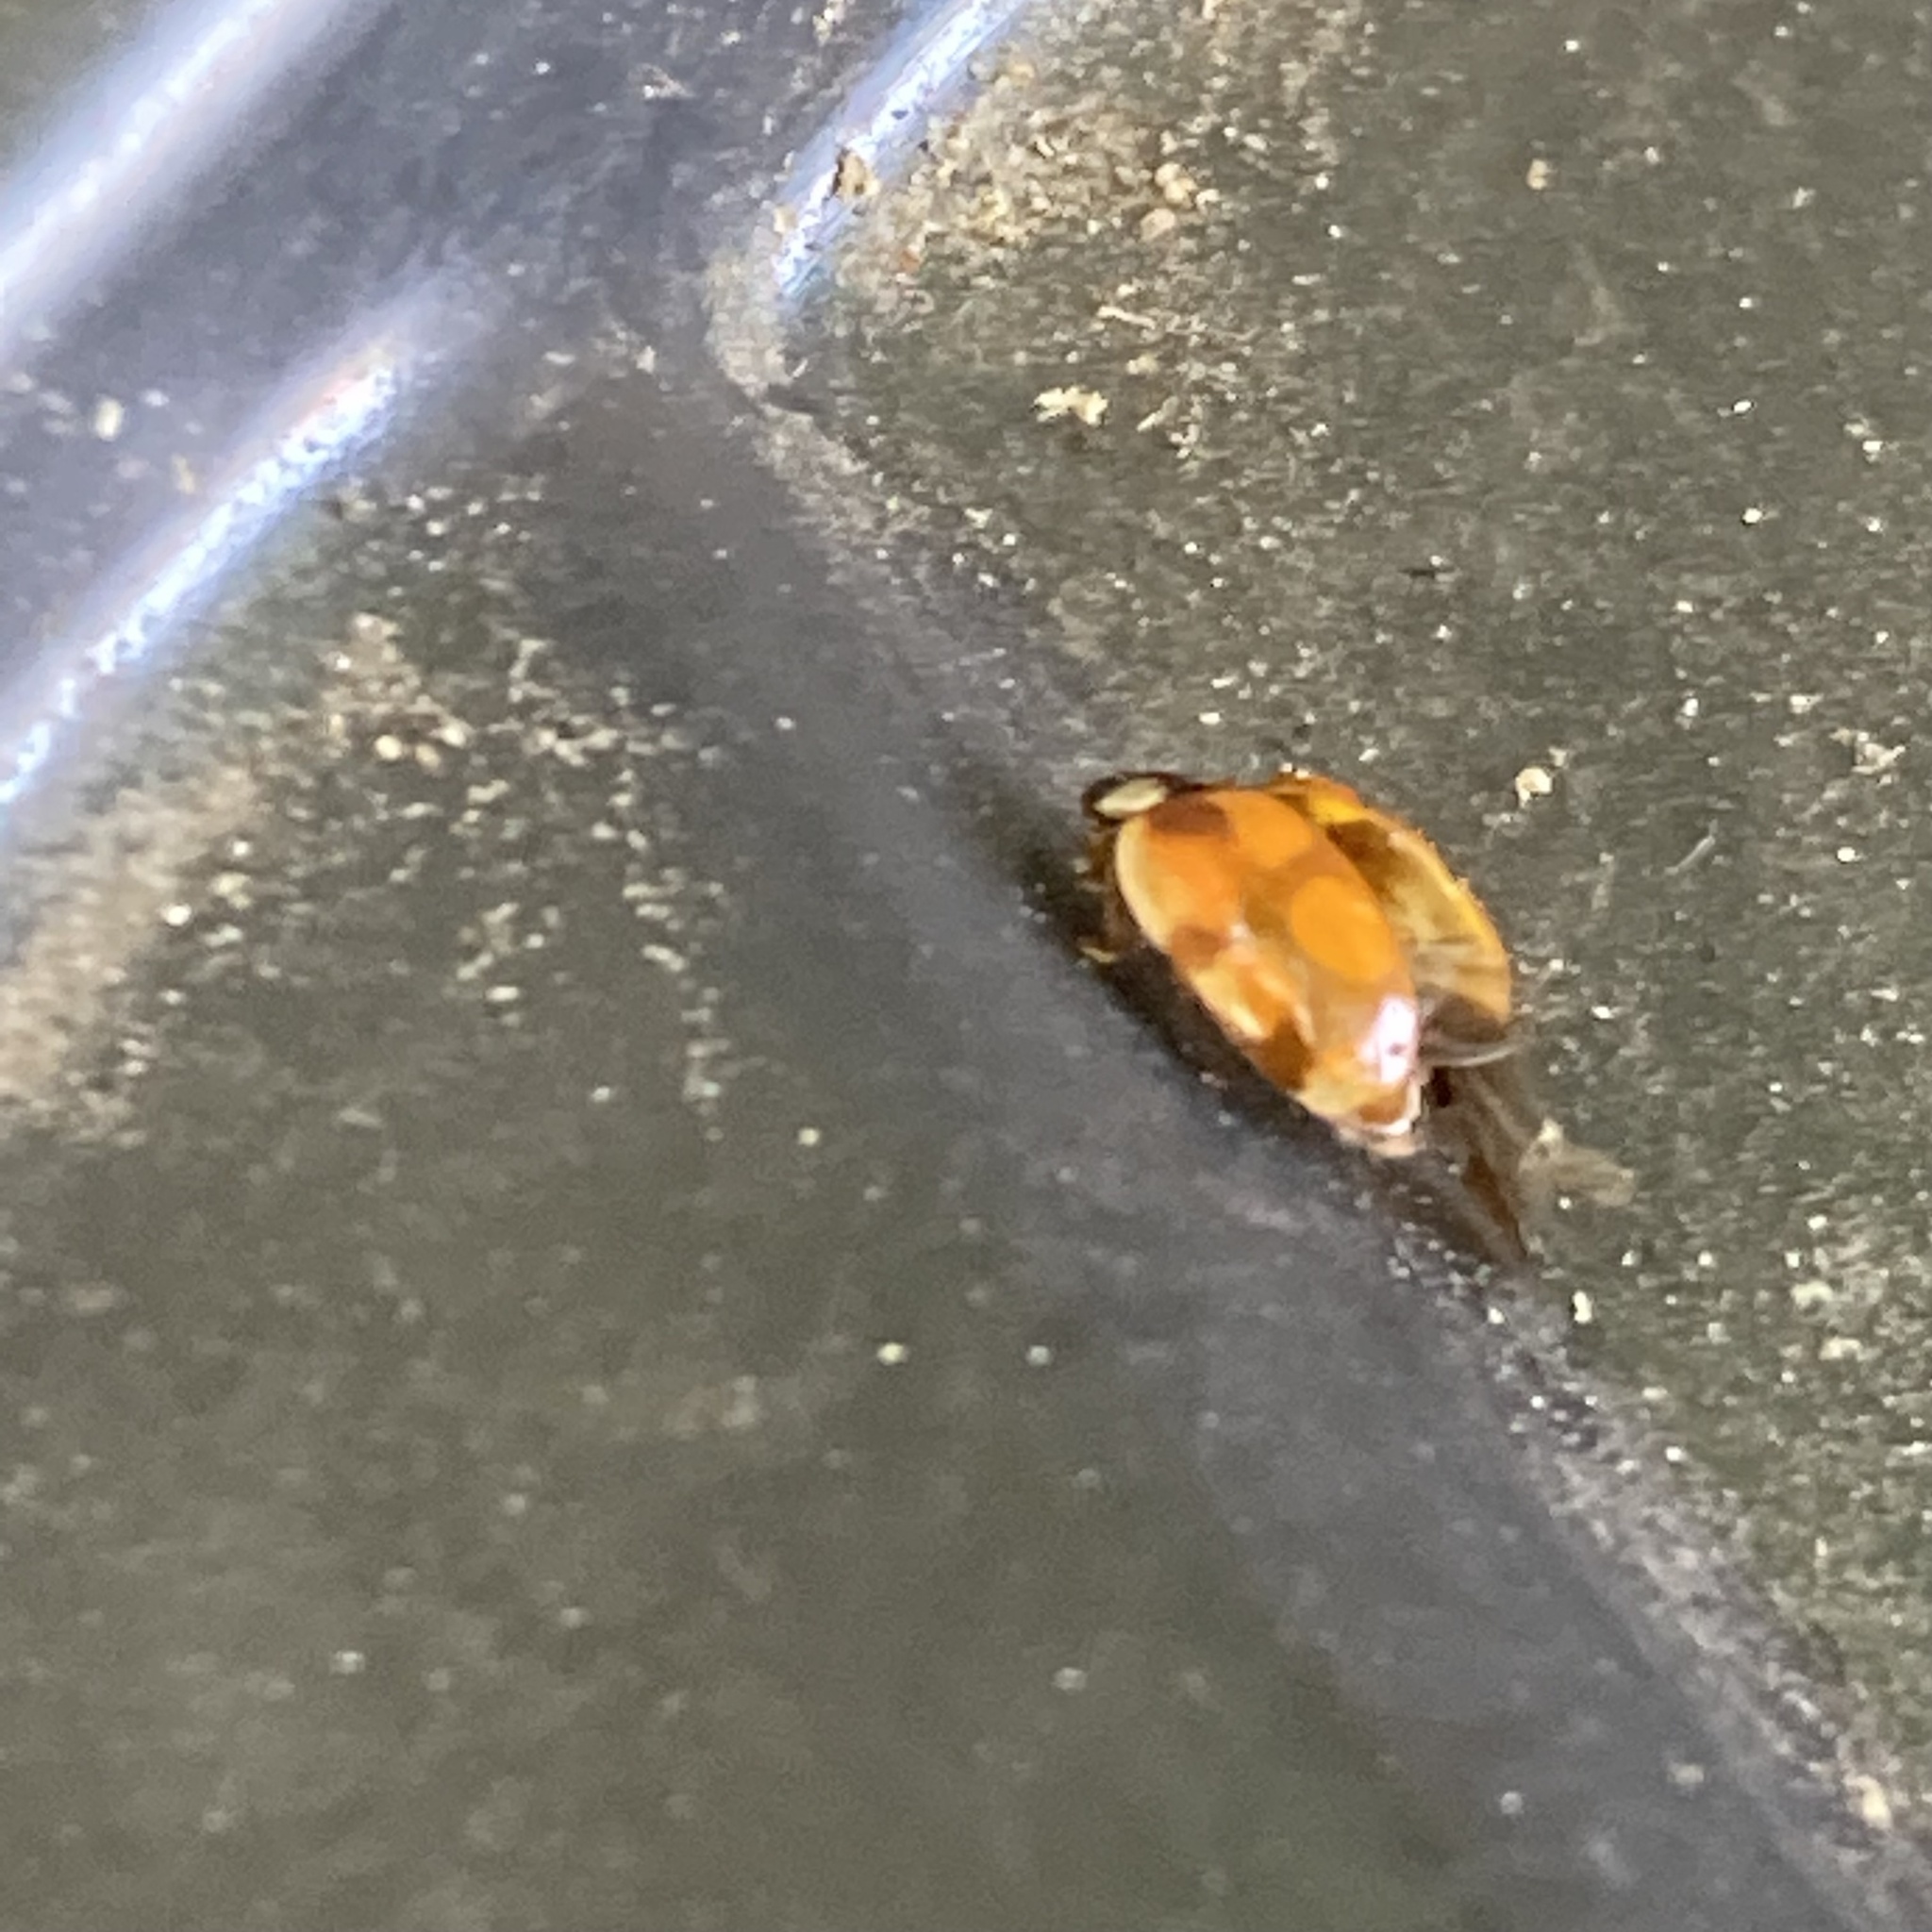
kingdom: Animalia
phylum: Arthropoda
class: Insecta
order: Coleoptera
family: Coccinellidae
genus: Adalia
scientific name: Adalia decempunctata
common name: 10-spot ladybird
